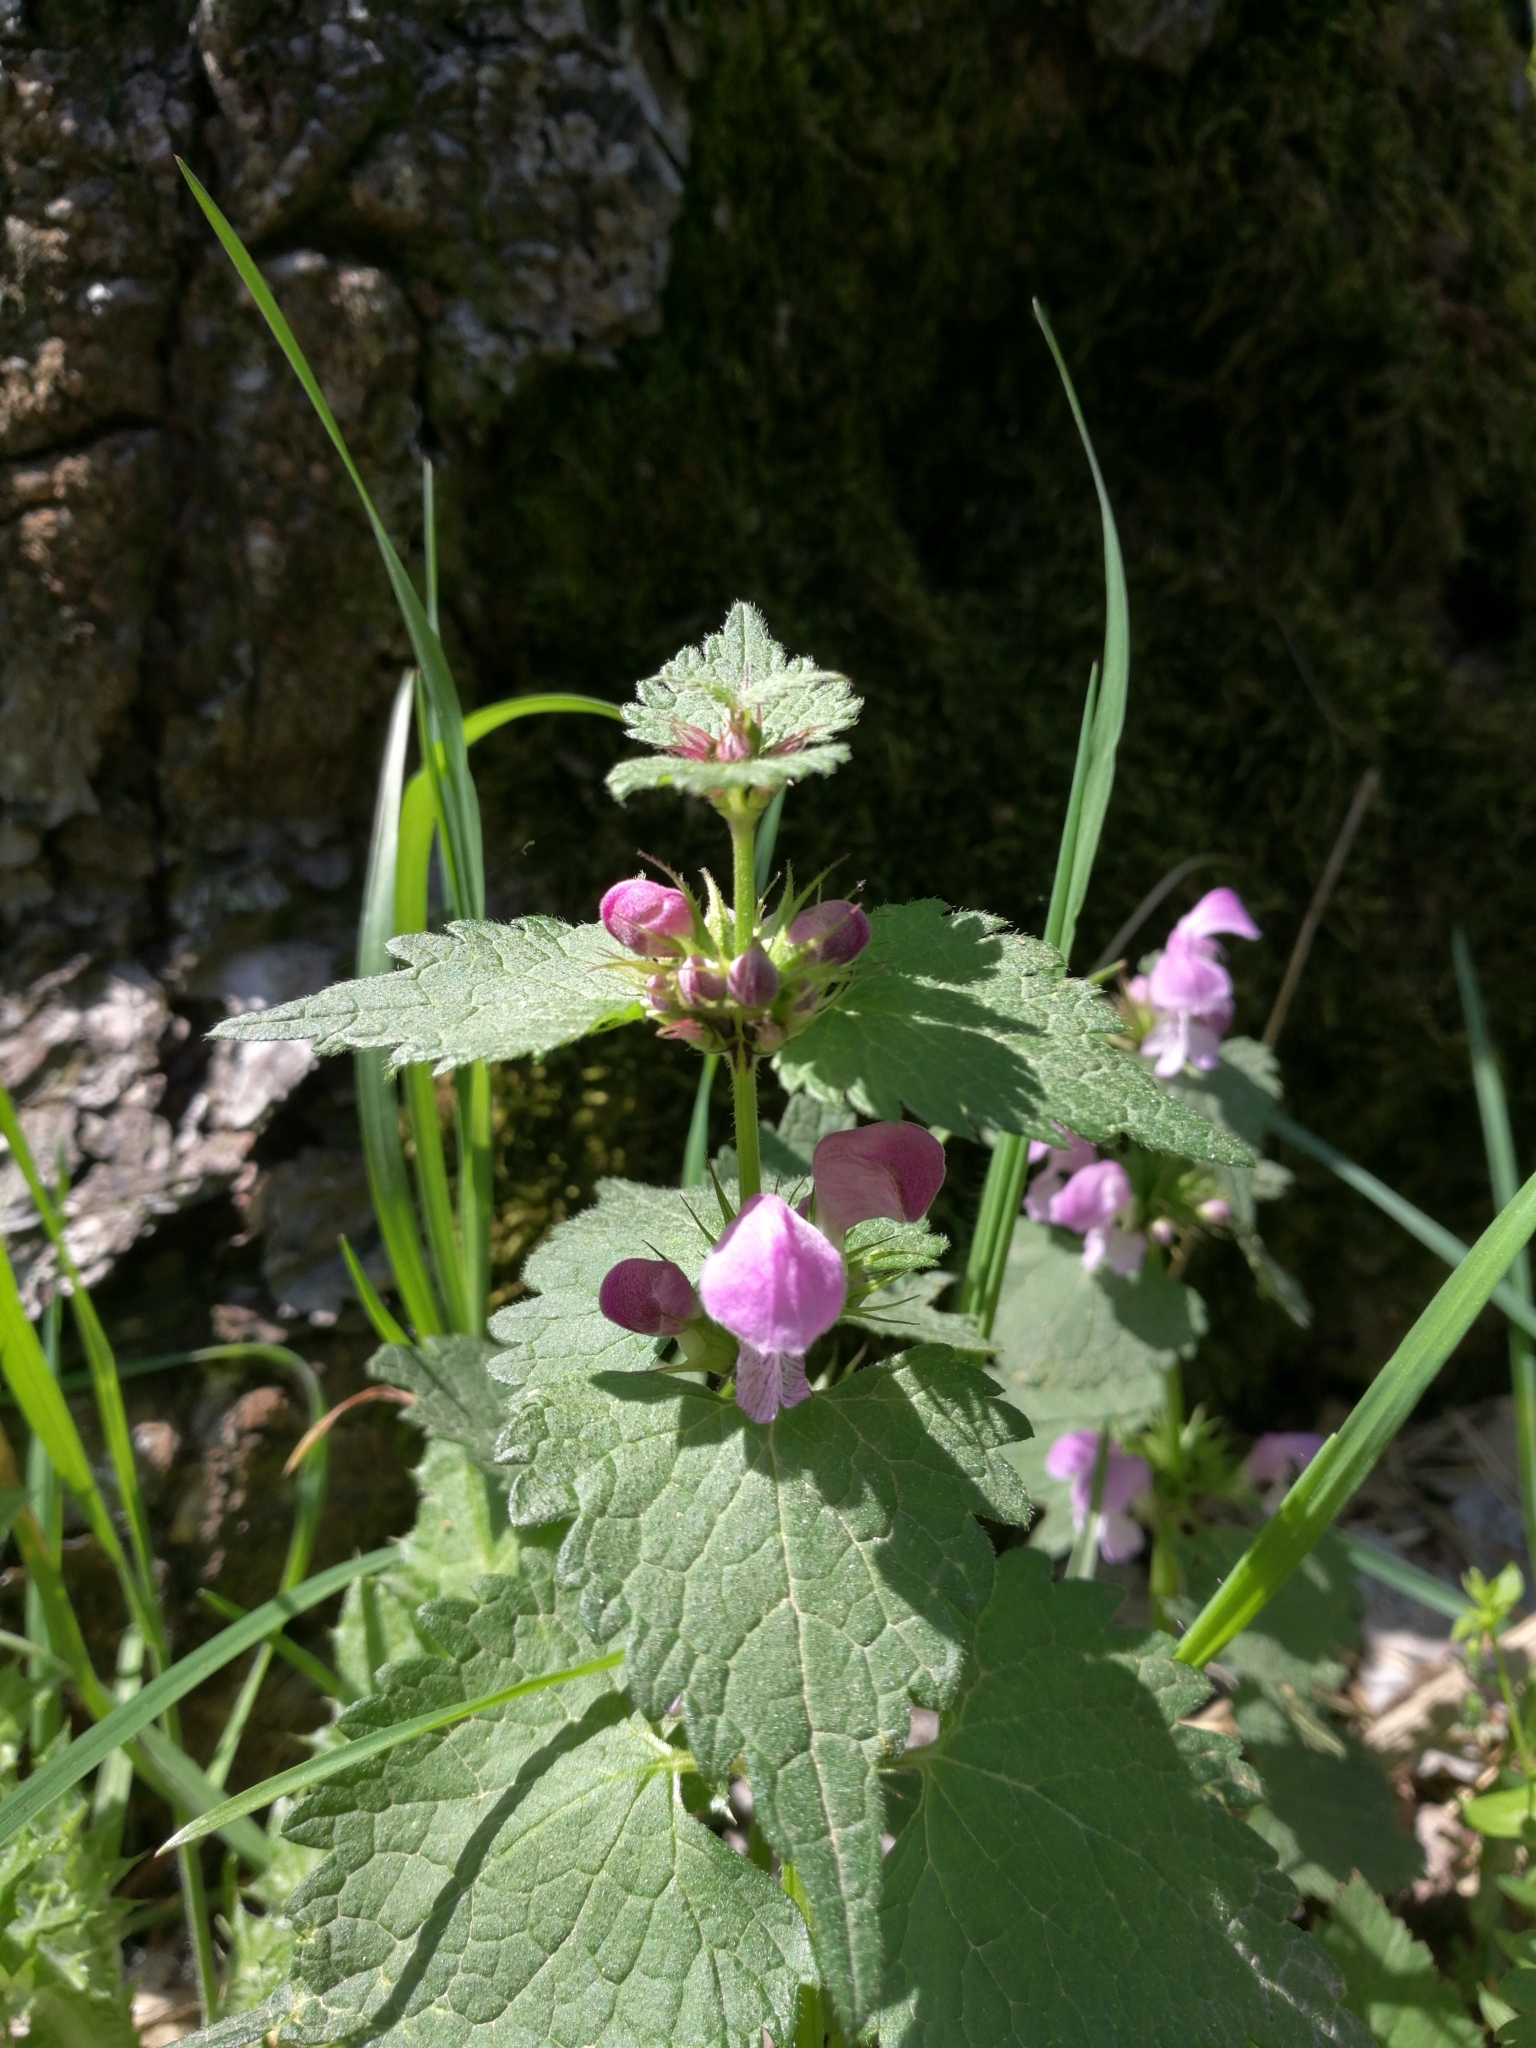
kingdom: Plantae
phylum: Tracheophyta
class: Magnoliopsida
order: Lamiales
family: Lamiaceae
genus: Lamium
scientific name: Lamium maculatum
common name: Spotted dead-nettle
